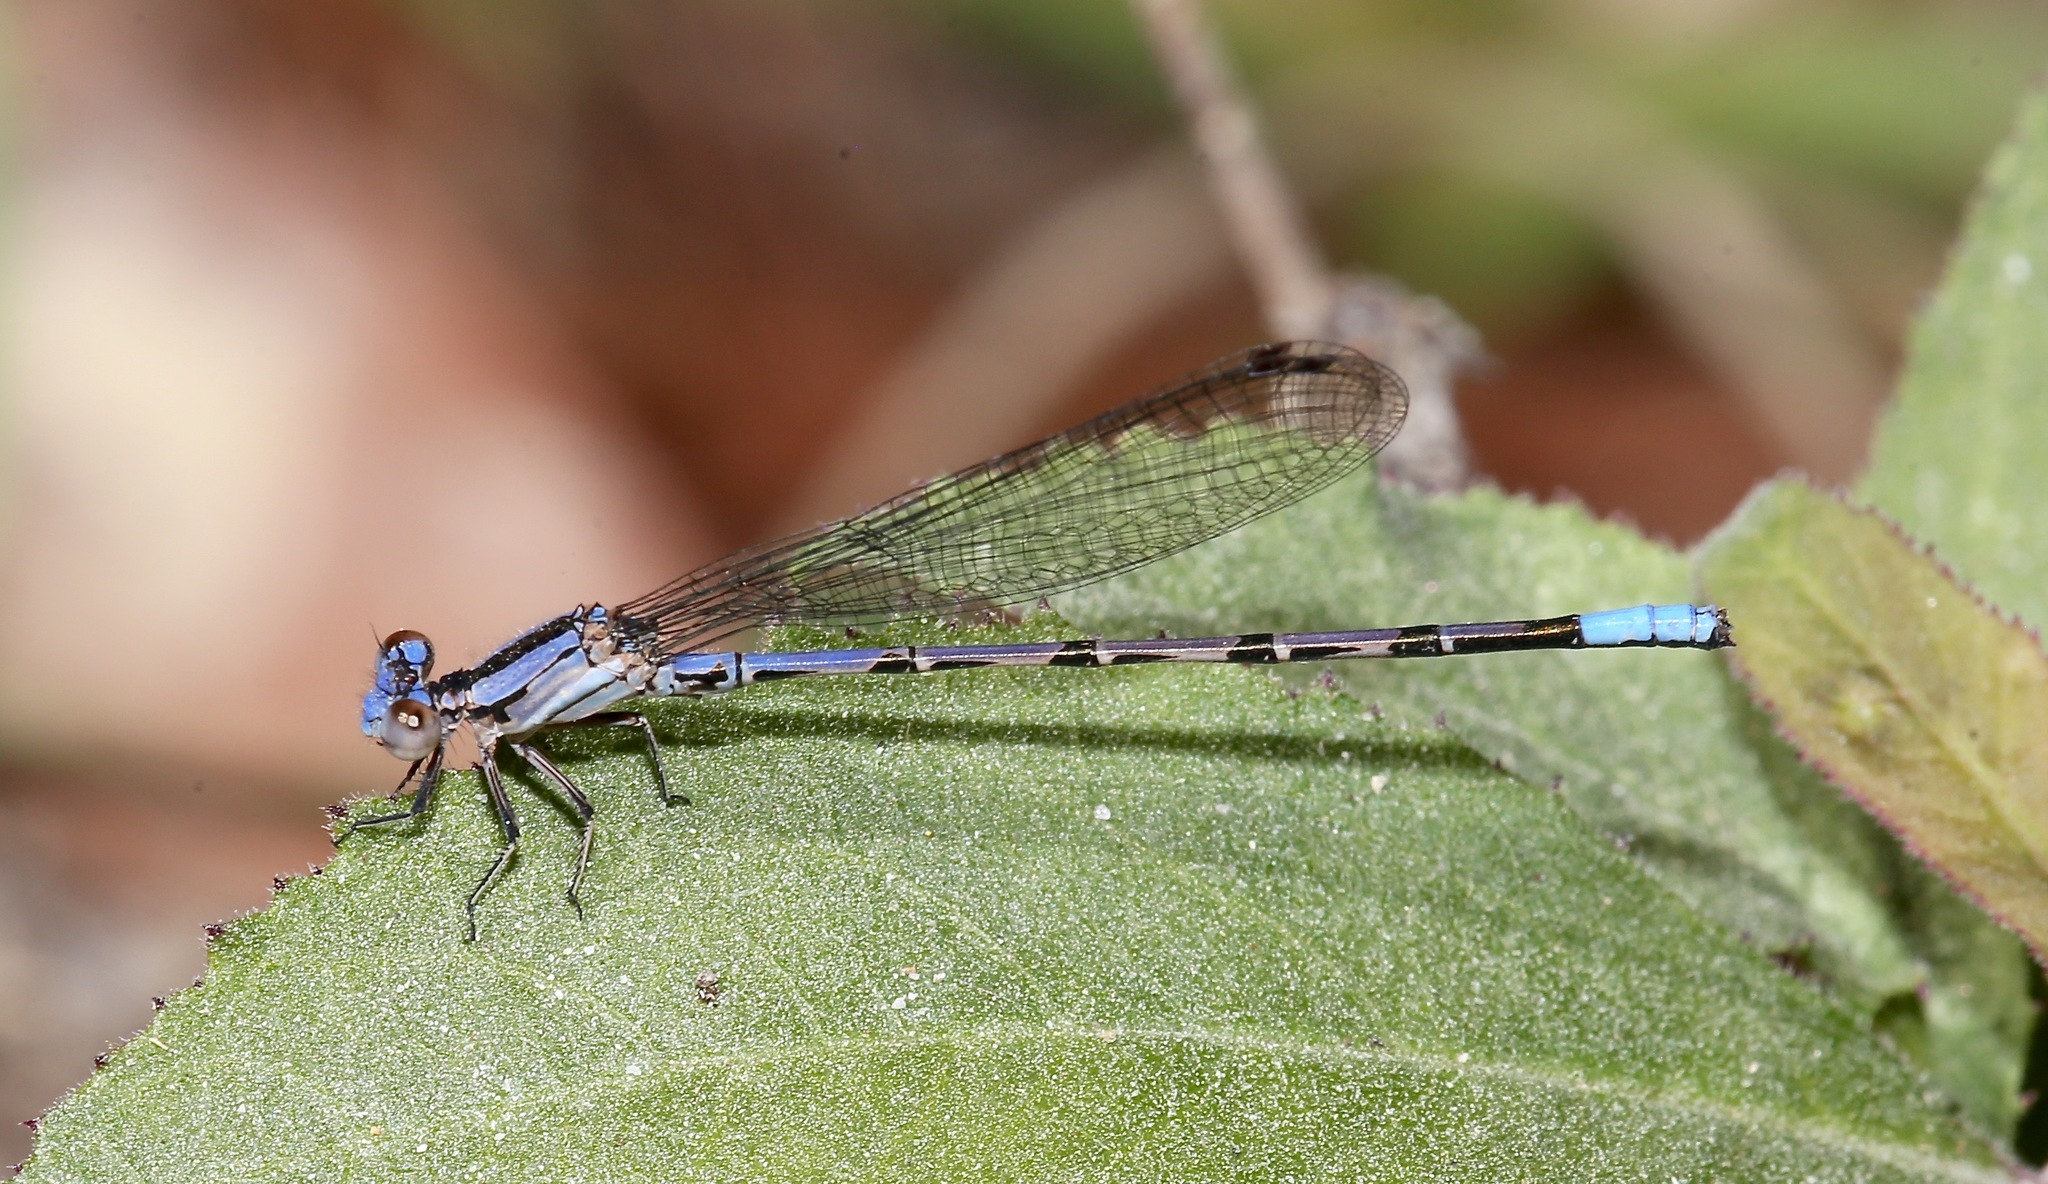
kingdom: Animalia
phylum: Arthropoda
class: Insecta
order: Odonata
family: Coenagrionidae
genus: Argia
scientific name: Argia extranea
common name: Spine-tipped dancer
